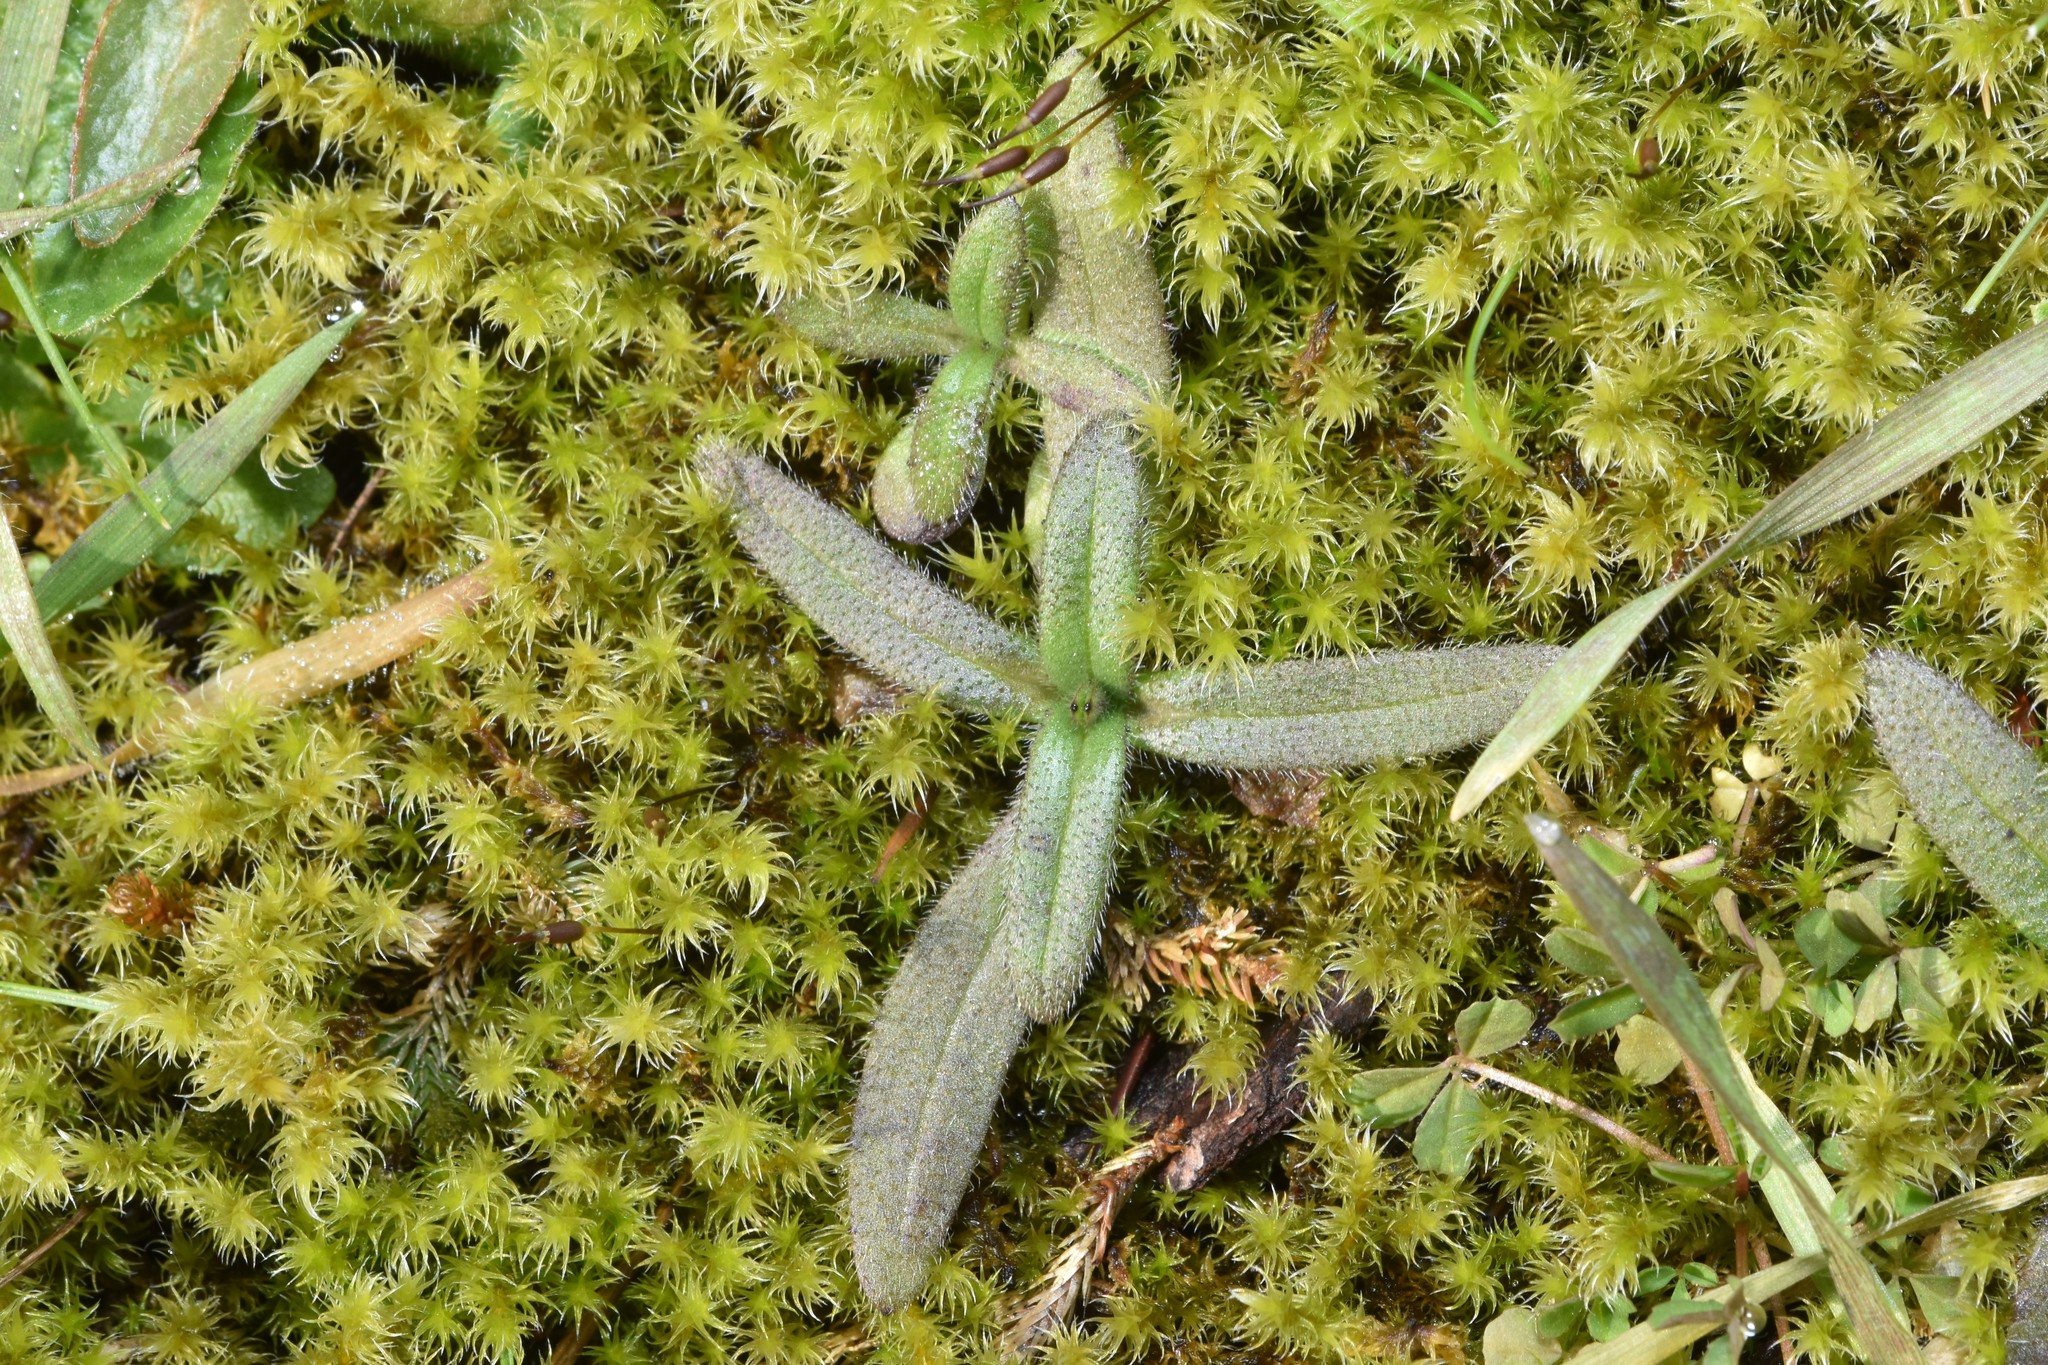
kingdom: Plantae
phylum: Tracheophyta
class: Magnoliopsida
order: Asterales
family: Asteraceae
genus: Anisocarpus
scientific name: Anisocarpus madioides
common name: Woodland madia
